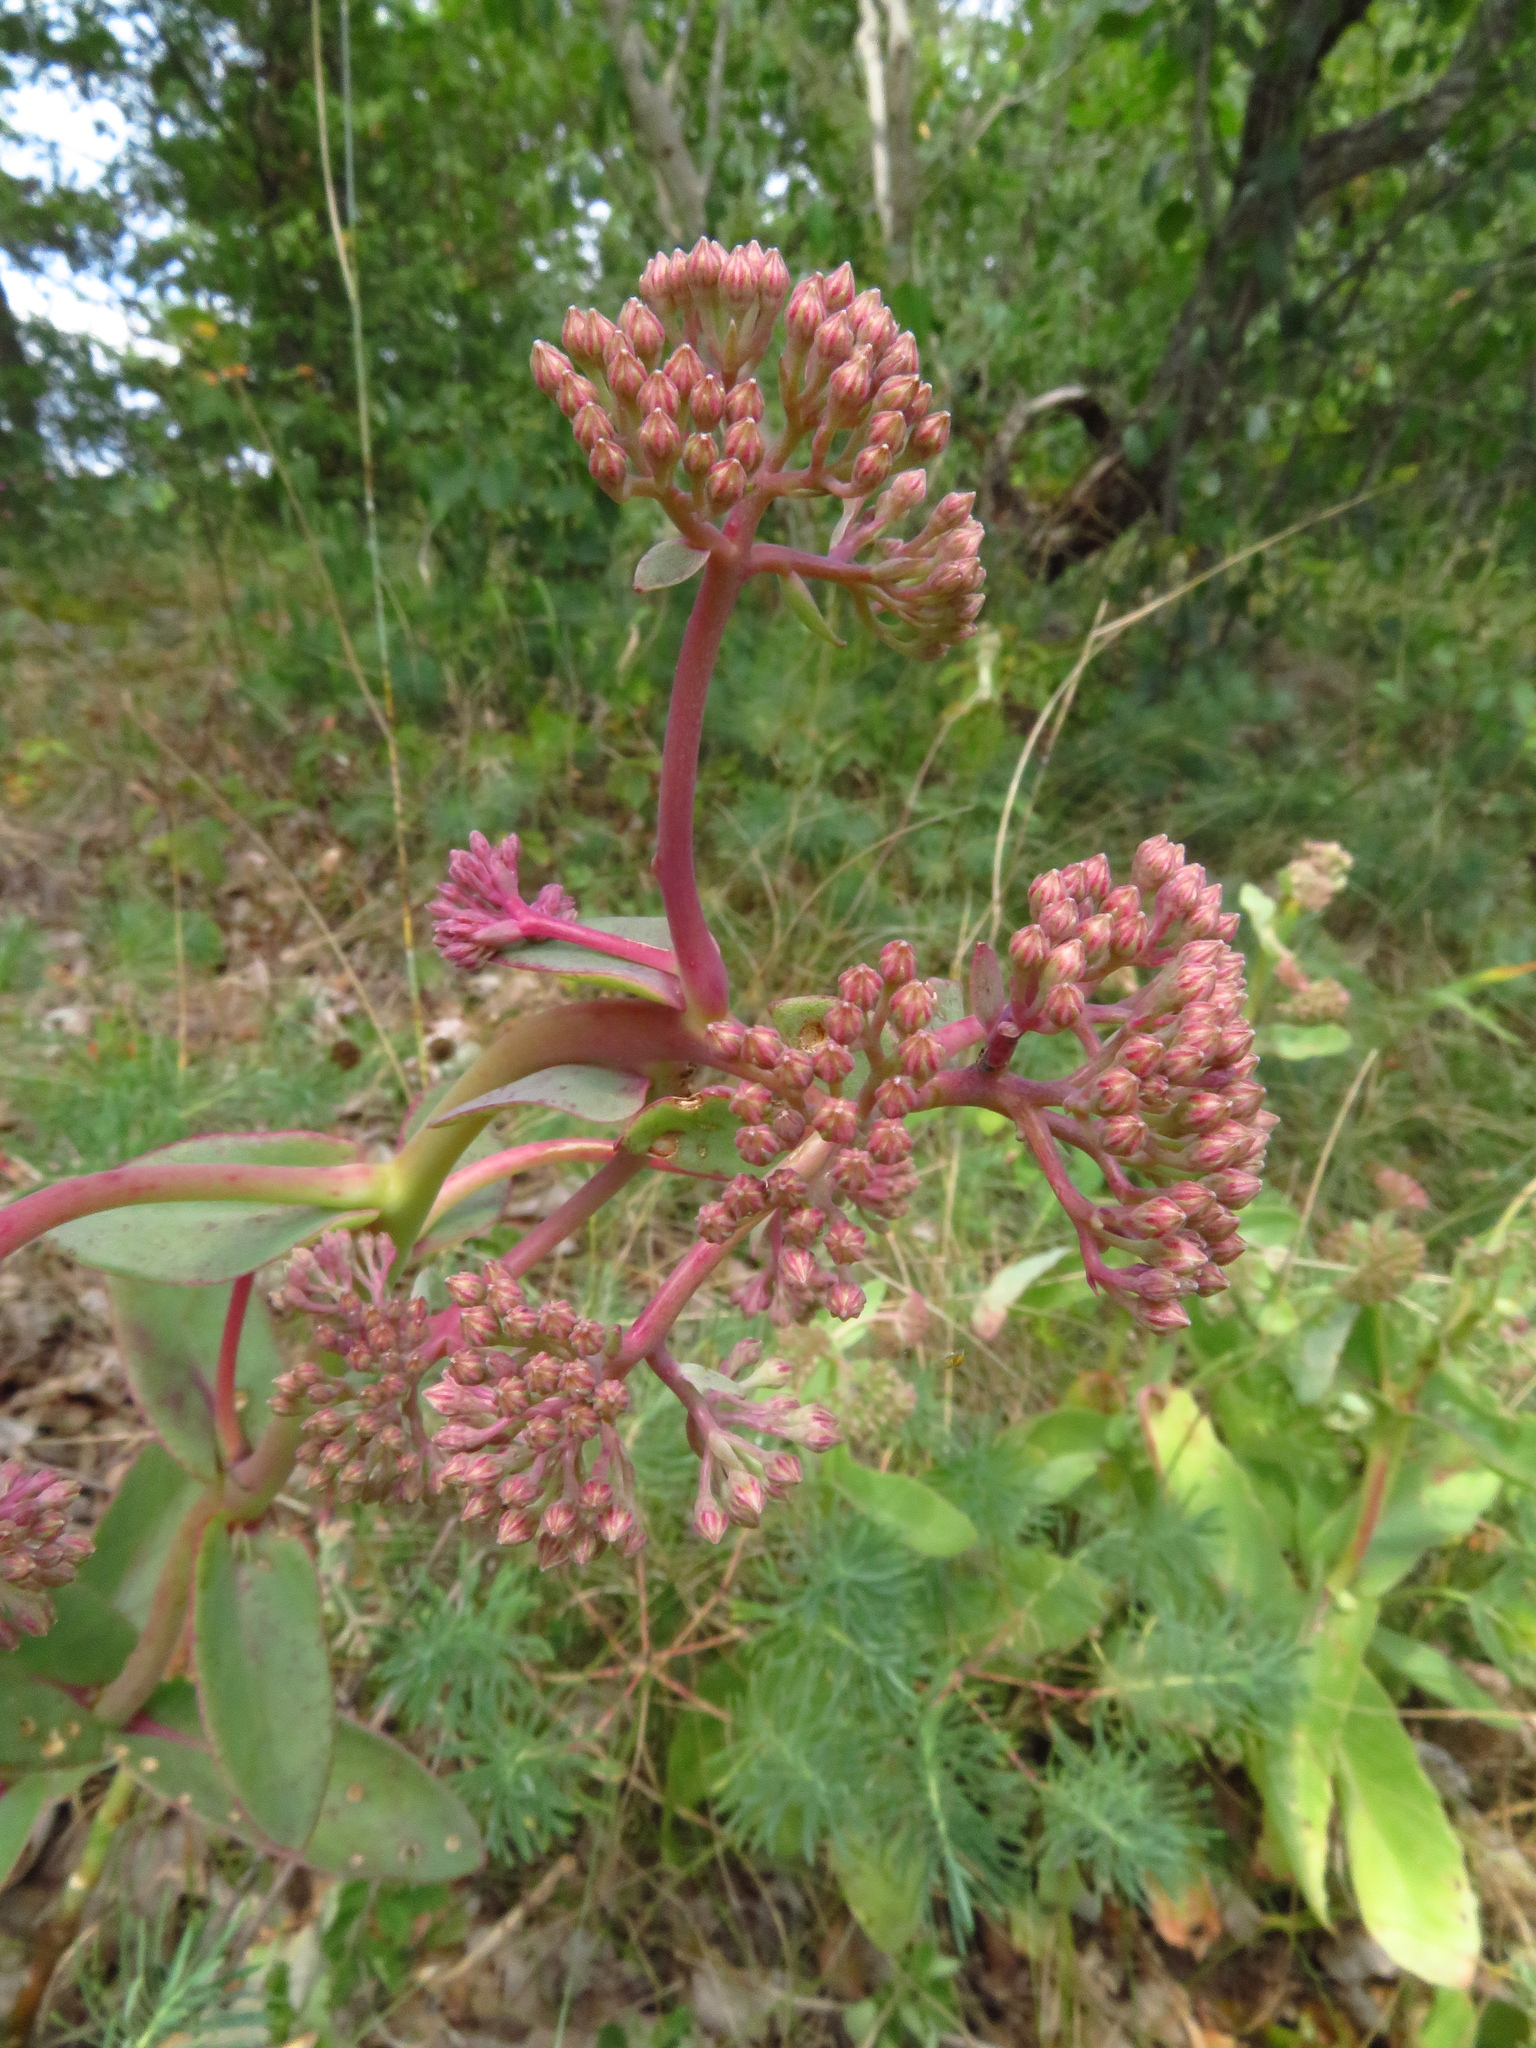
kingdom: Plantae
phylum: Tracheophyta
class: Magnoliopsida
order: Saxifragales
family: Crassulaceae
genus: Hylotelephium
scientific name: Hylotelephium maximum
